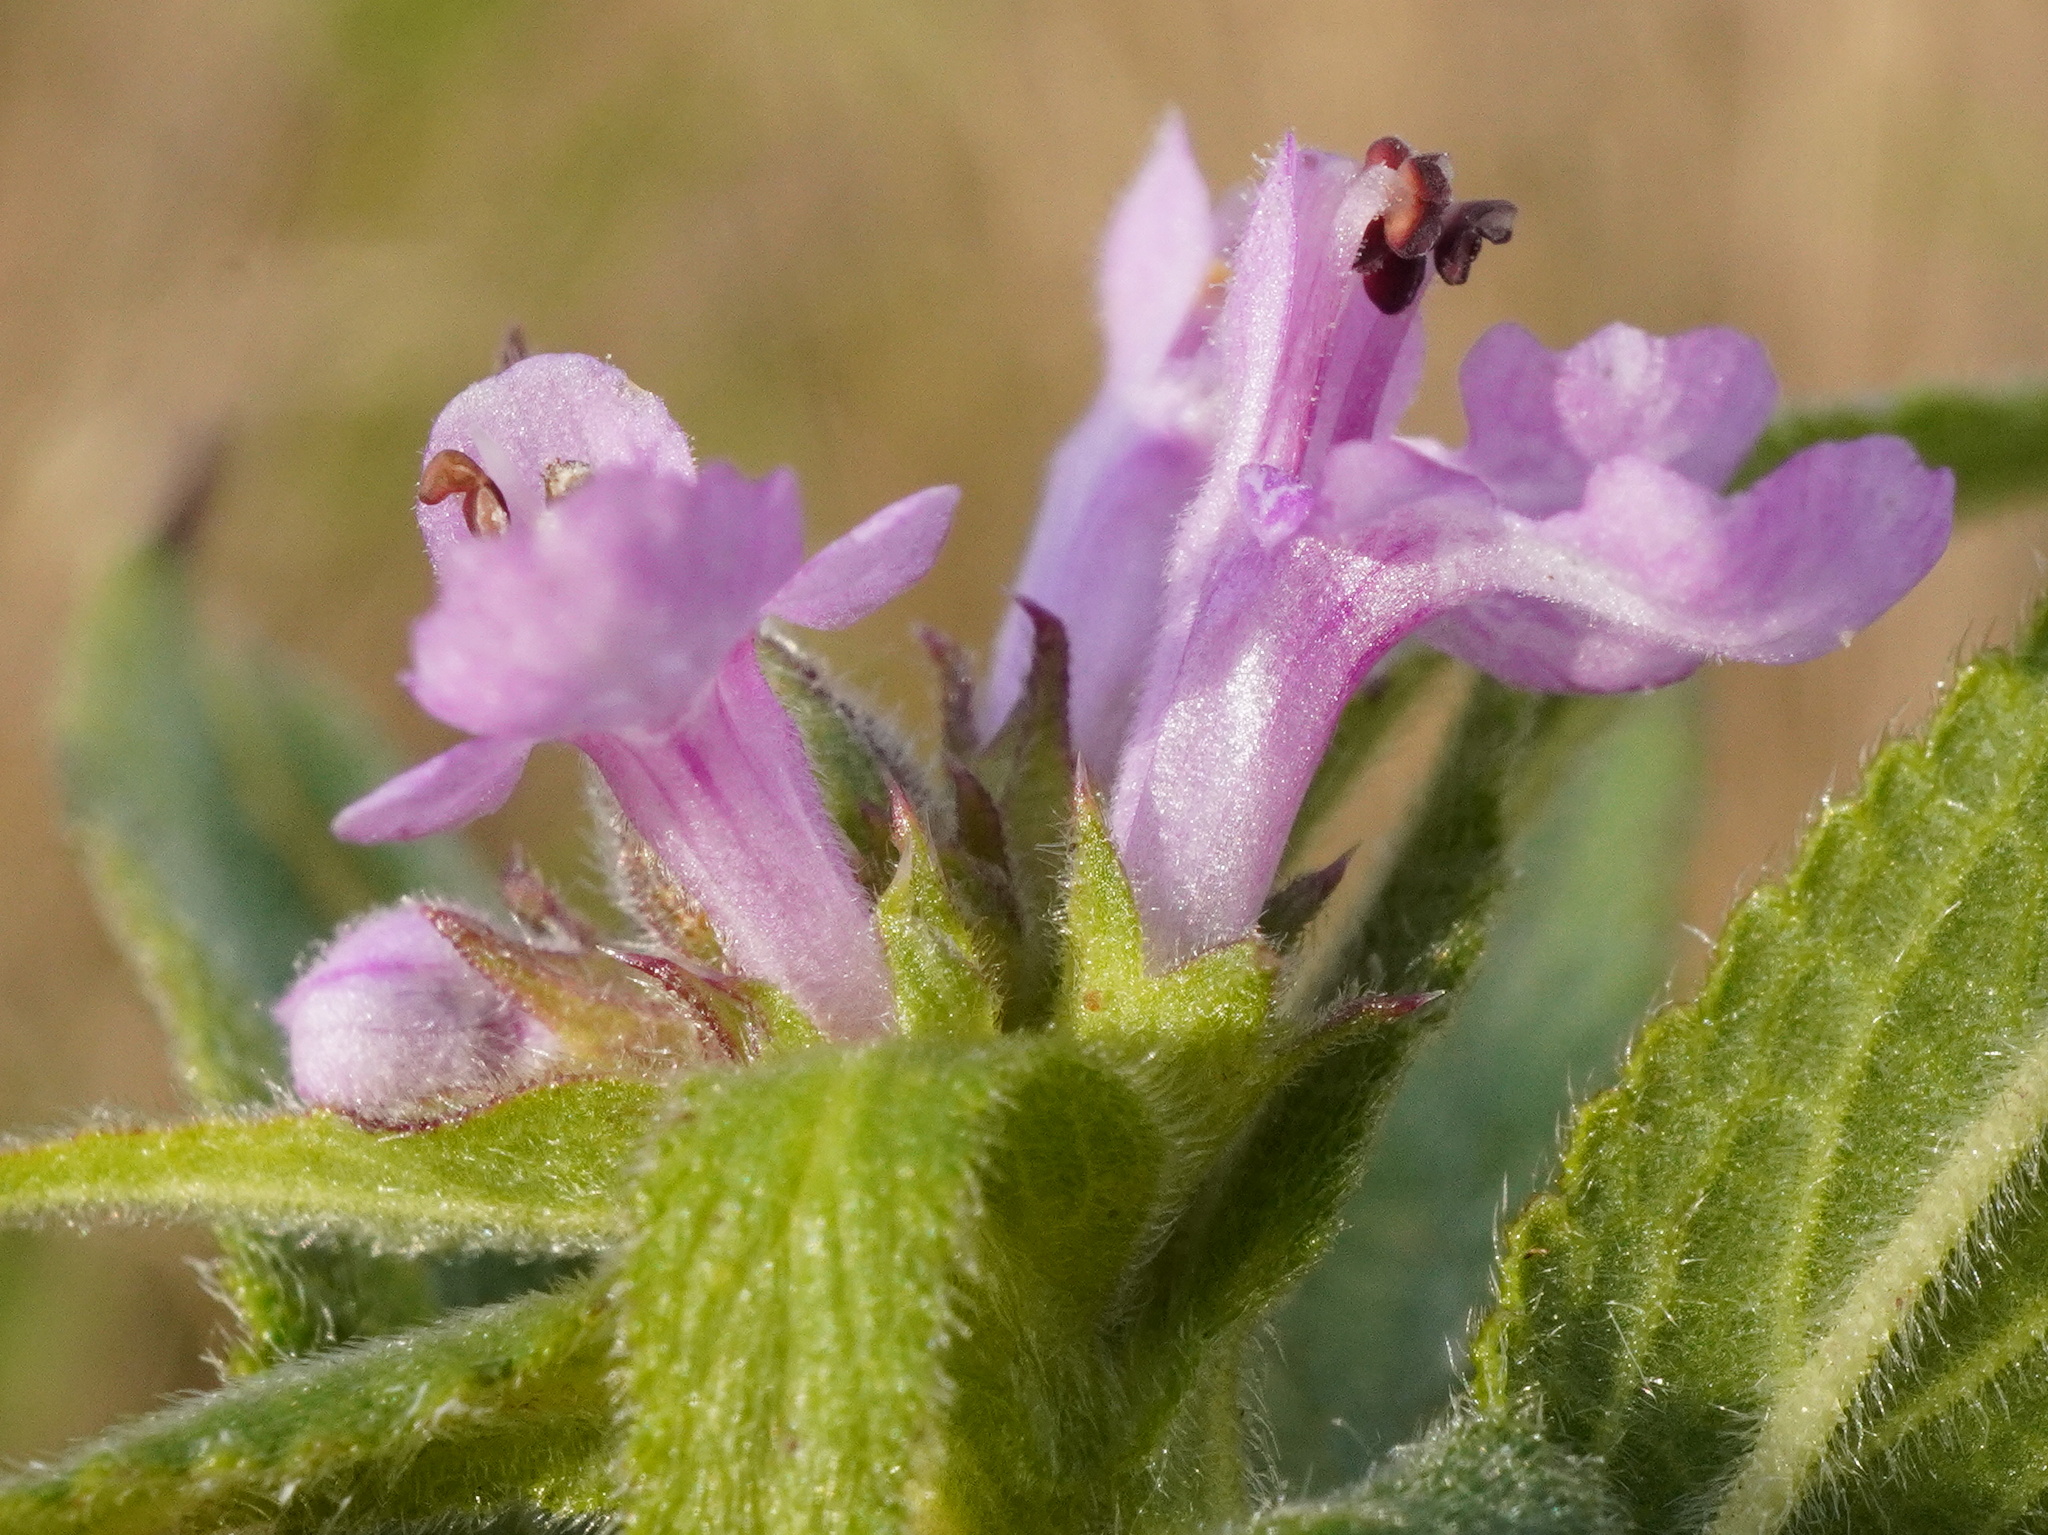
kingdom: Plantae
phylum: Tracheophyta
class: Magnoliopsida
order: Lamiales
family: Lamiaceae
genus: Stachys
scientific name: Stachys palustris
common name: Marsh woundwort
